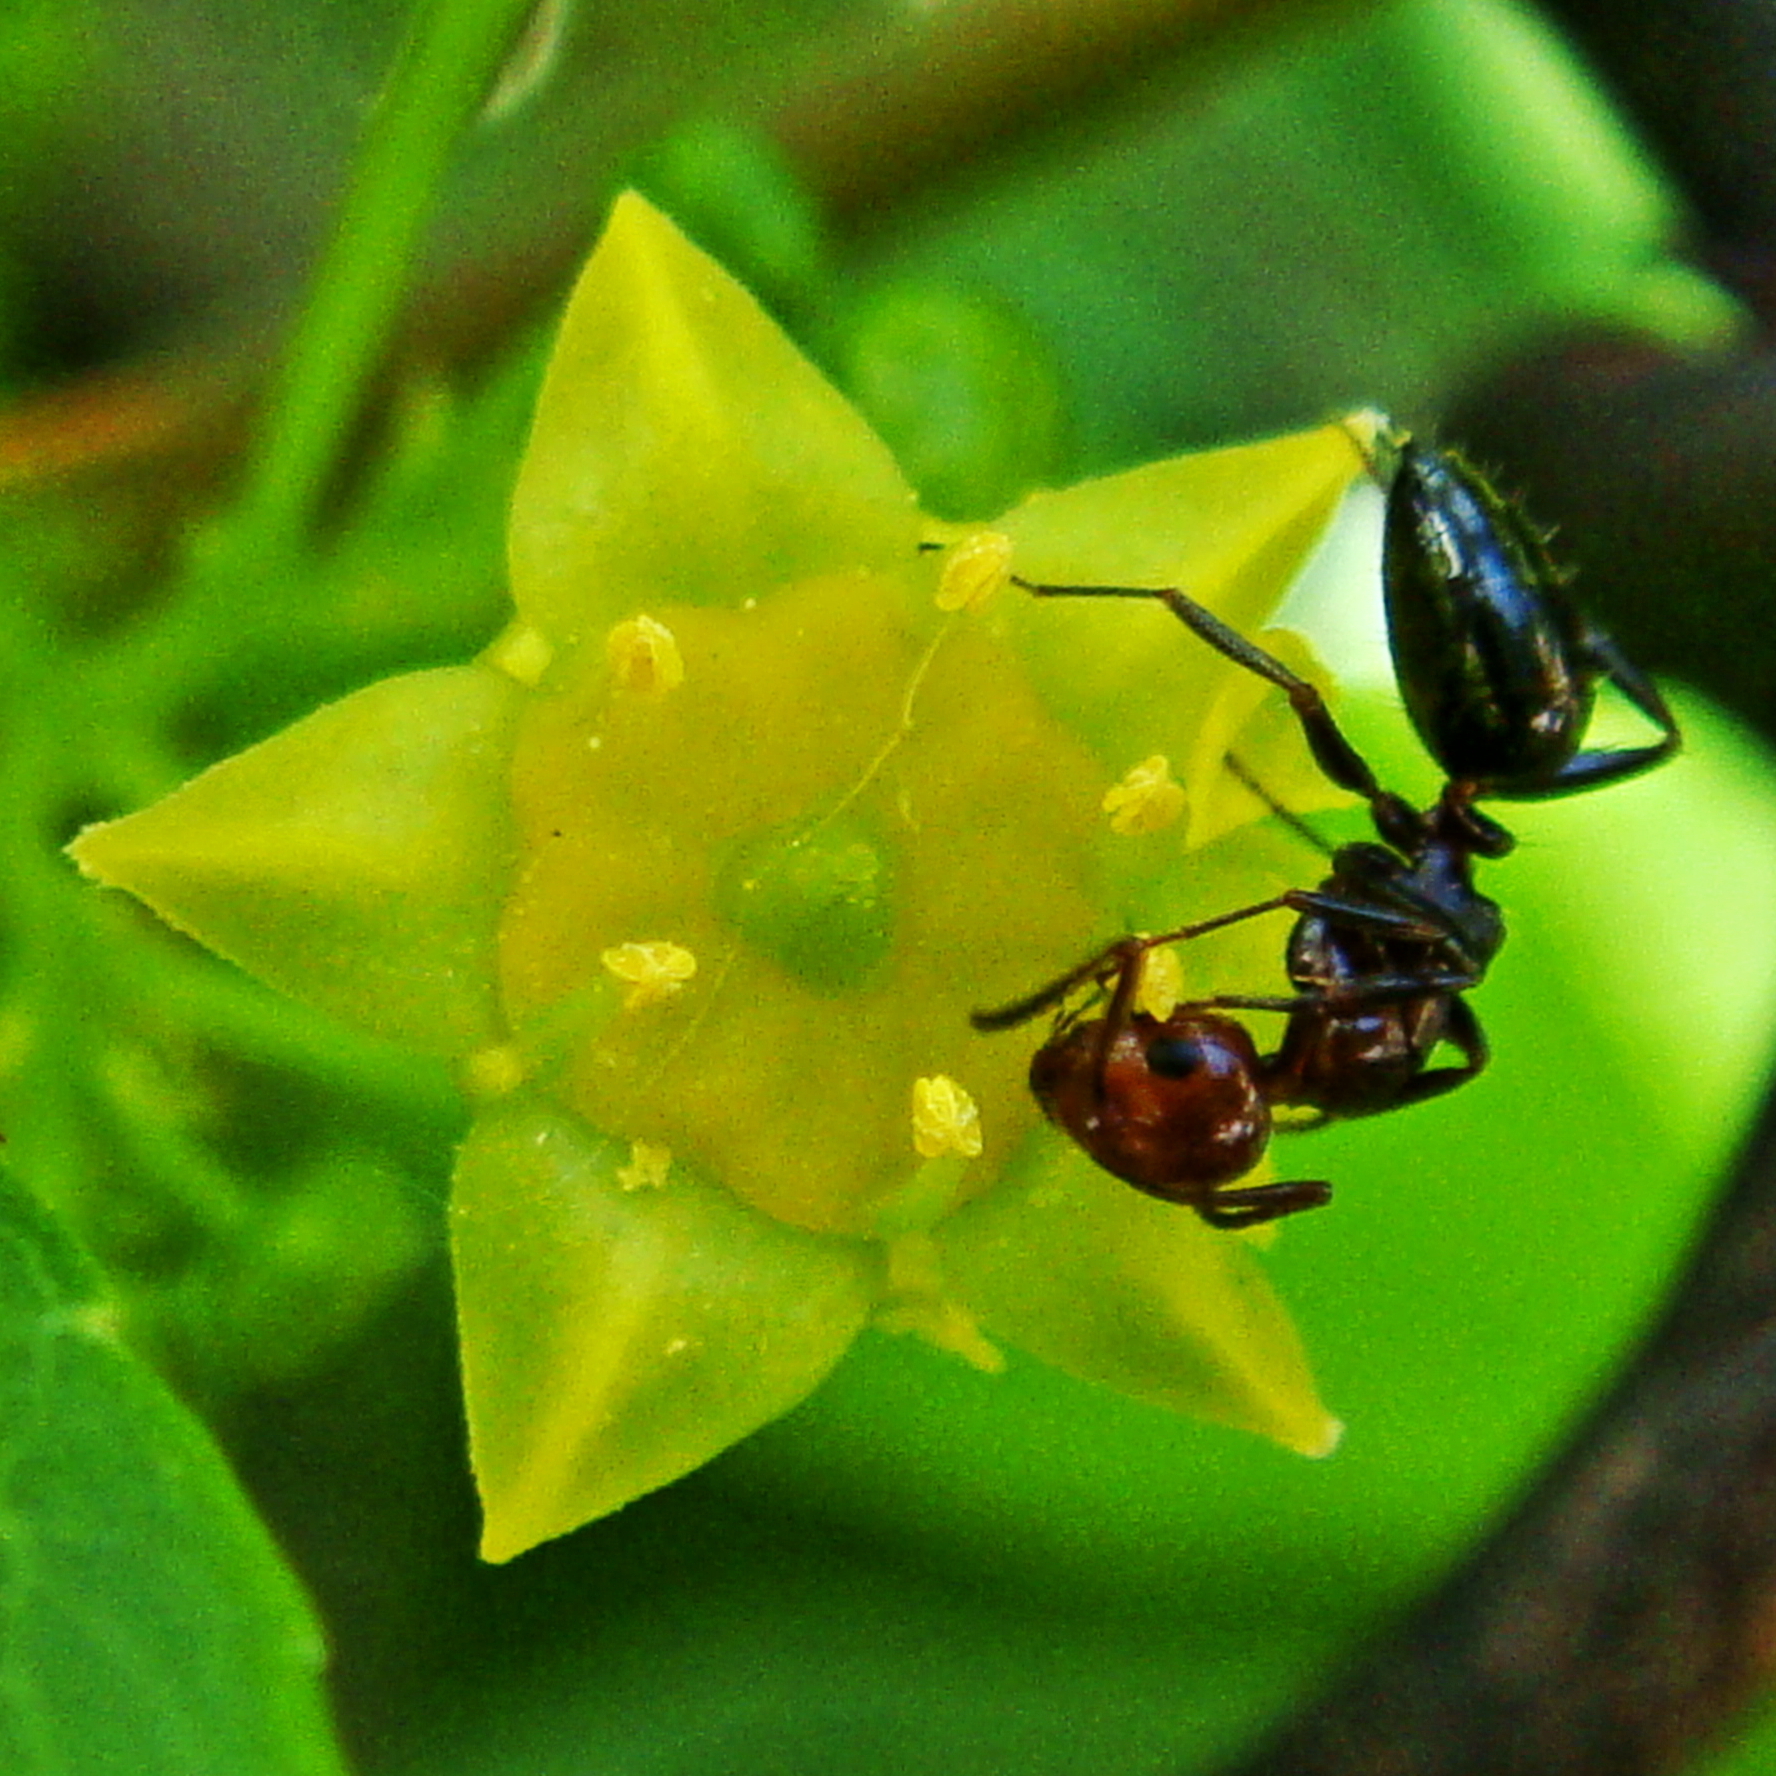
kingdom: Animalia
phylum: Arthropoda
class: Insecta
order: Hymenoptera
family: Formicidae
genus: Camponotus
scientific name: Camponotus lateralis
